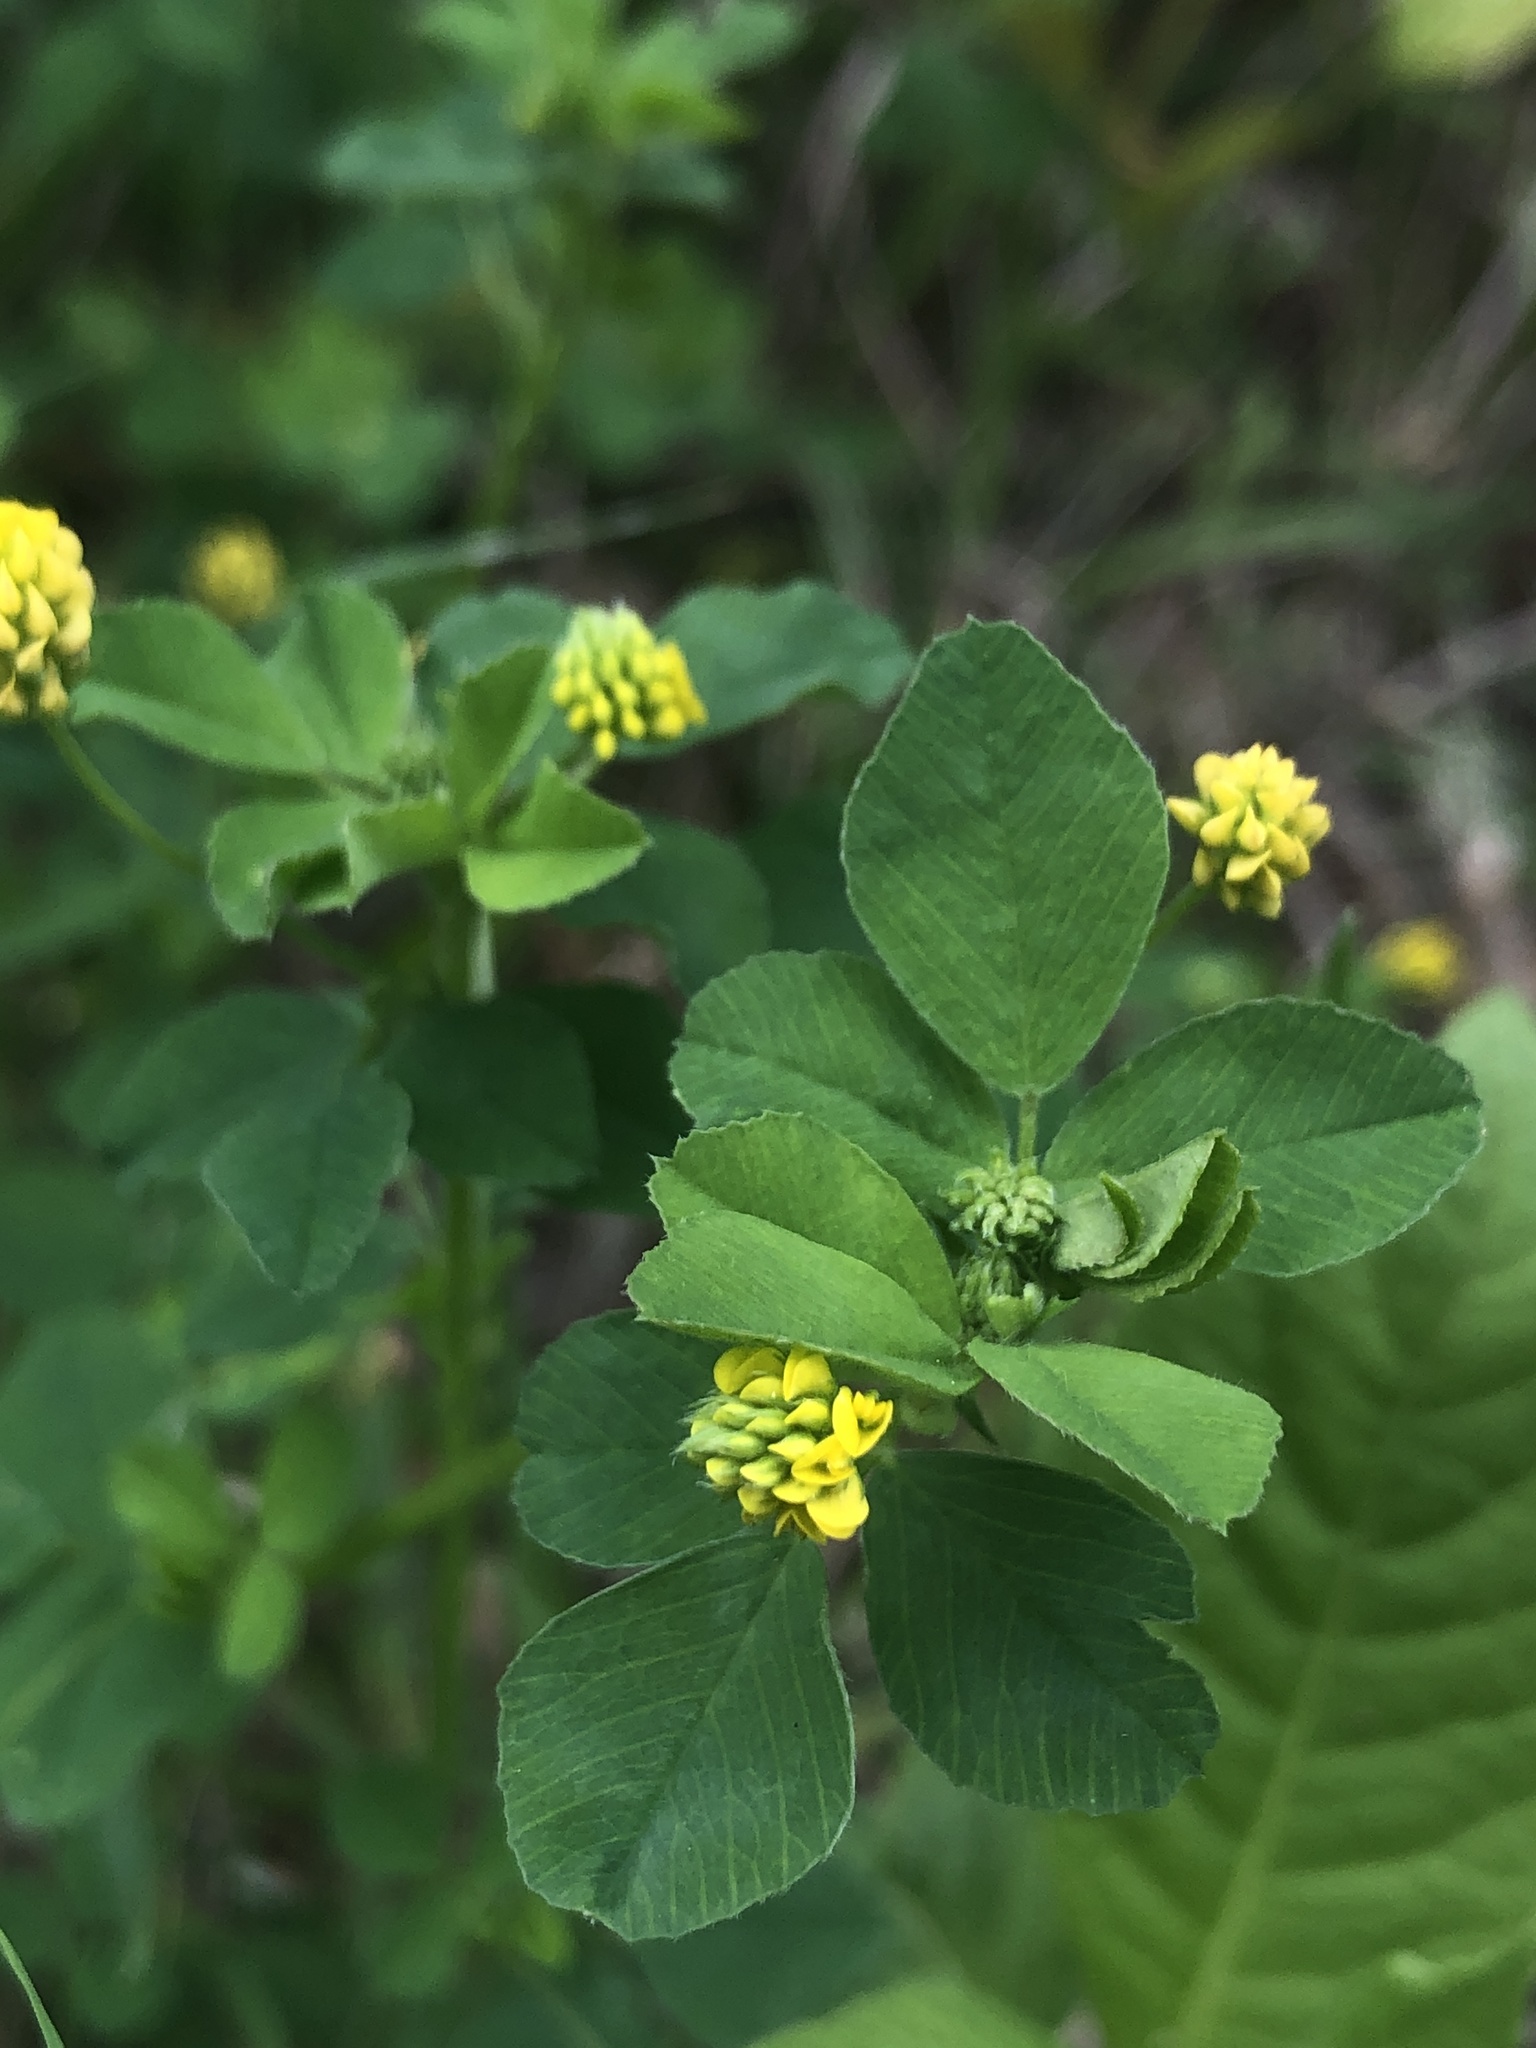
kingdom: Plantae
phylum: Tracheophyta
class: Magnoliopsida
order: Fabales
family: Fabaceae
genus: Medicago
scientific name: Medicago lupulina
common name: Black medick
